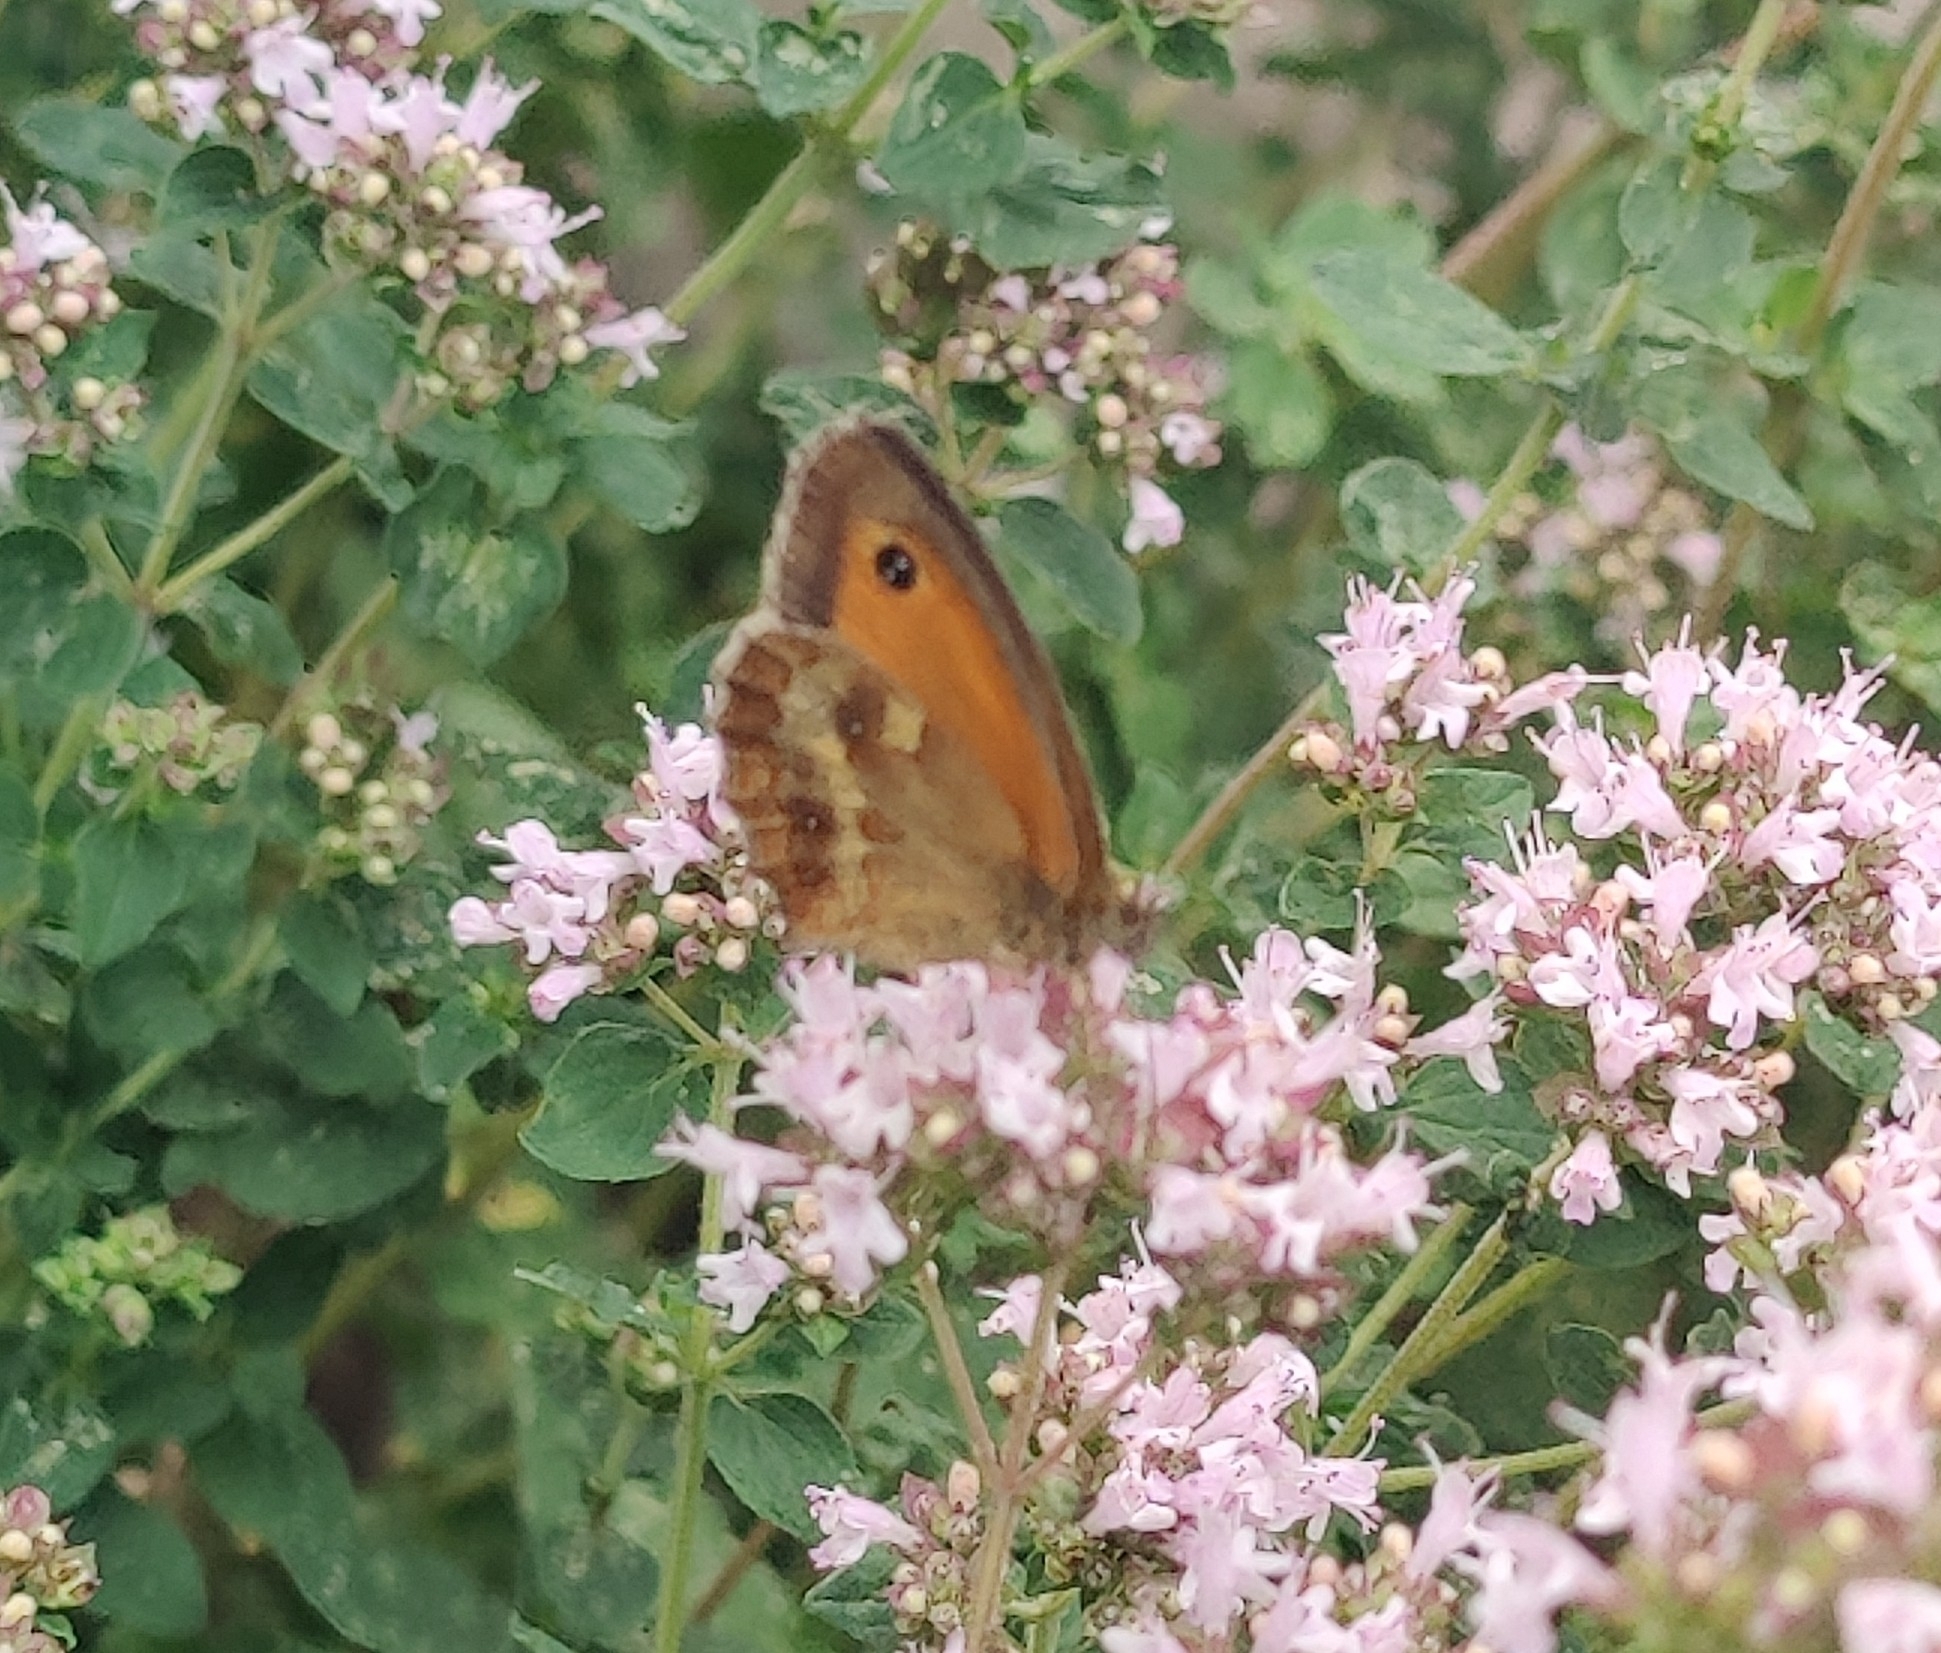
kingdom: Animalia
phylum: Arthropoda
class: Insecta
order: Lepidoptera
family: Nymphalidae
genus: Pyronia
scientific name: Pyronia tithonus
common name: Gatekeeper
